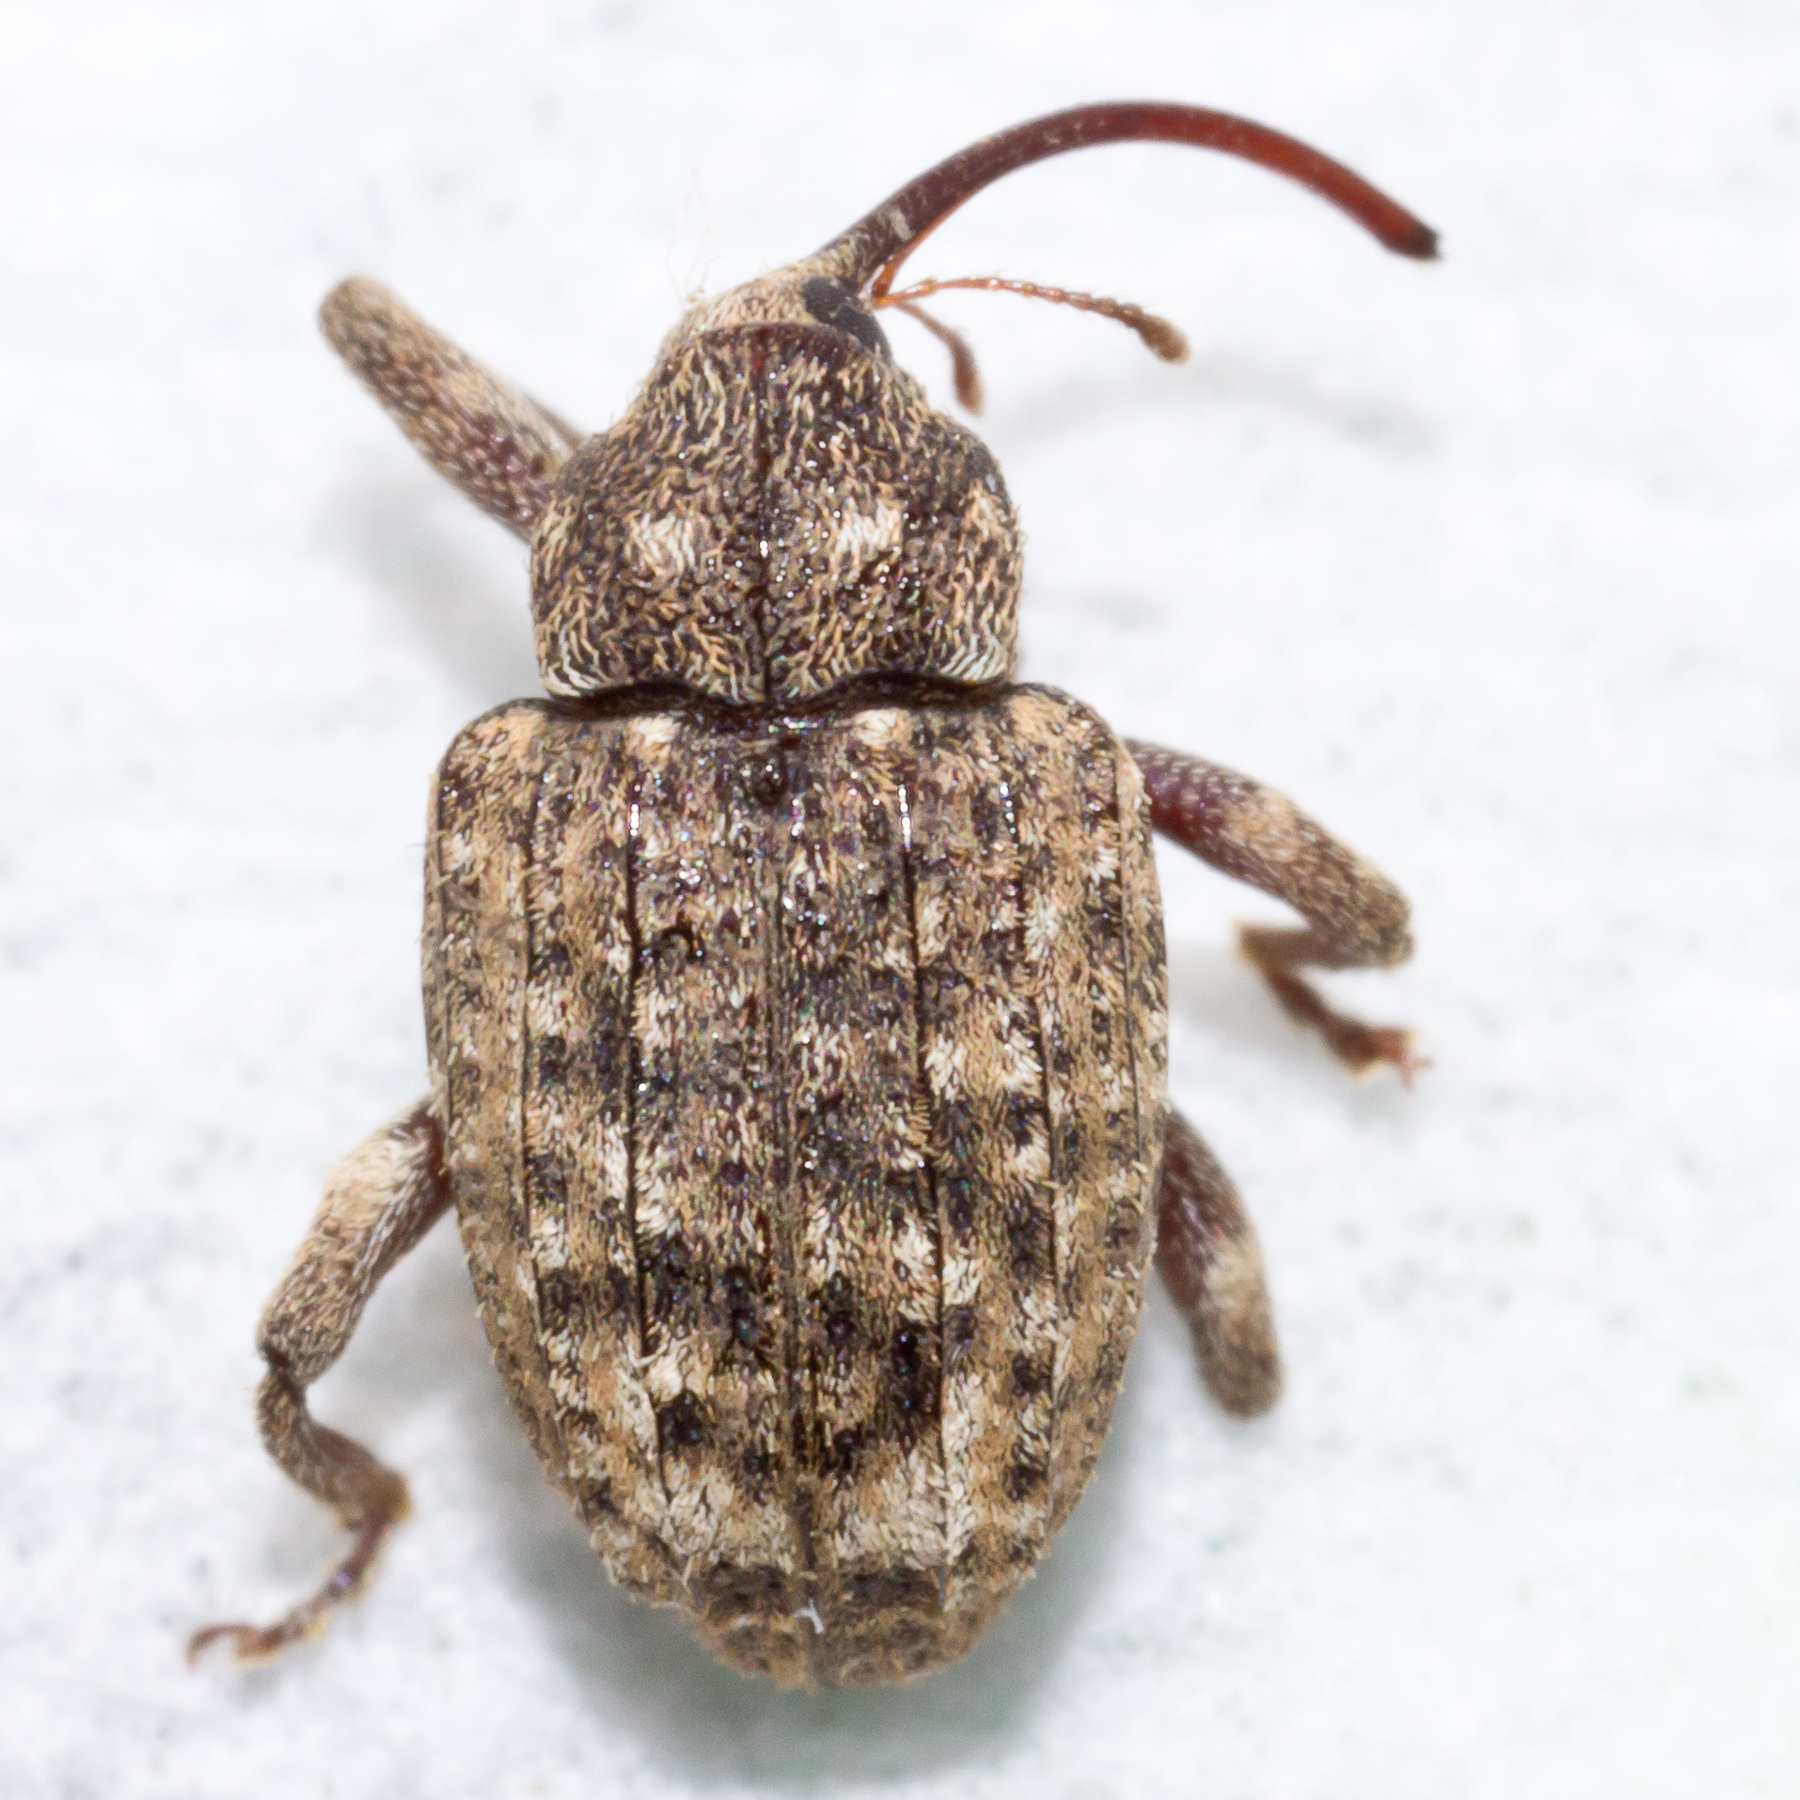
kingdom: Animalia
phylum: Arthropoda
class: Insecta
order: Coleoptera
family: Curculionidae
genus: Conotrachelus
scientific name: Conotrachelus naso
